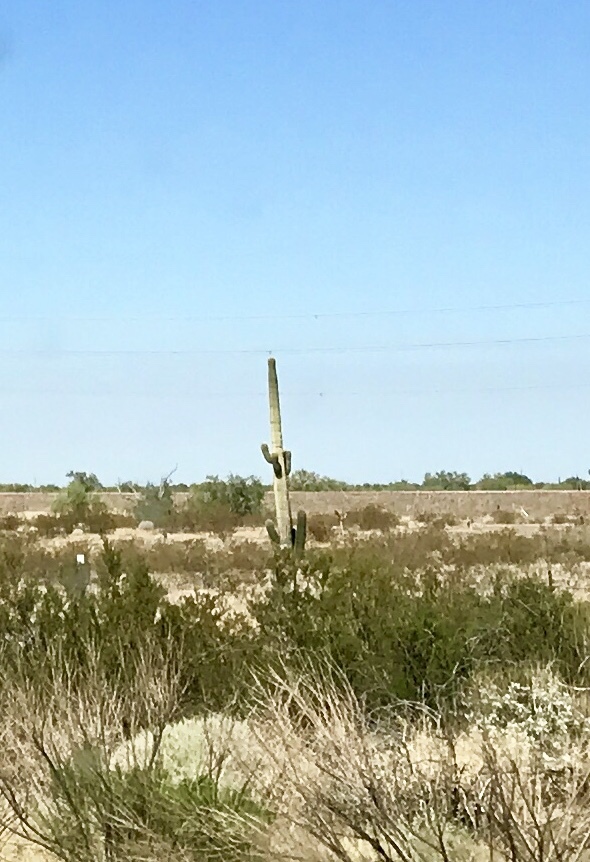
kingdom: Plantae
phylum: Tracheophyta
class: Magnoliopsida
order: Caryophyllales
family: Cactaceae
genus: Carnegiea
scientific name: Carnegiea gigantea
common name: Saguaro
